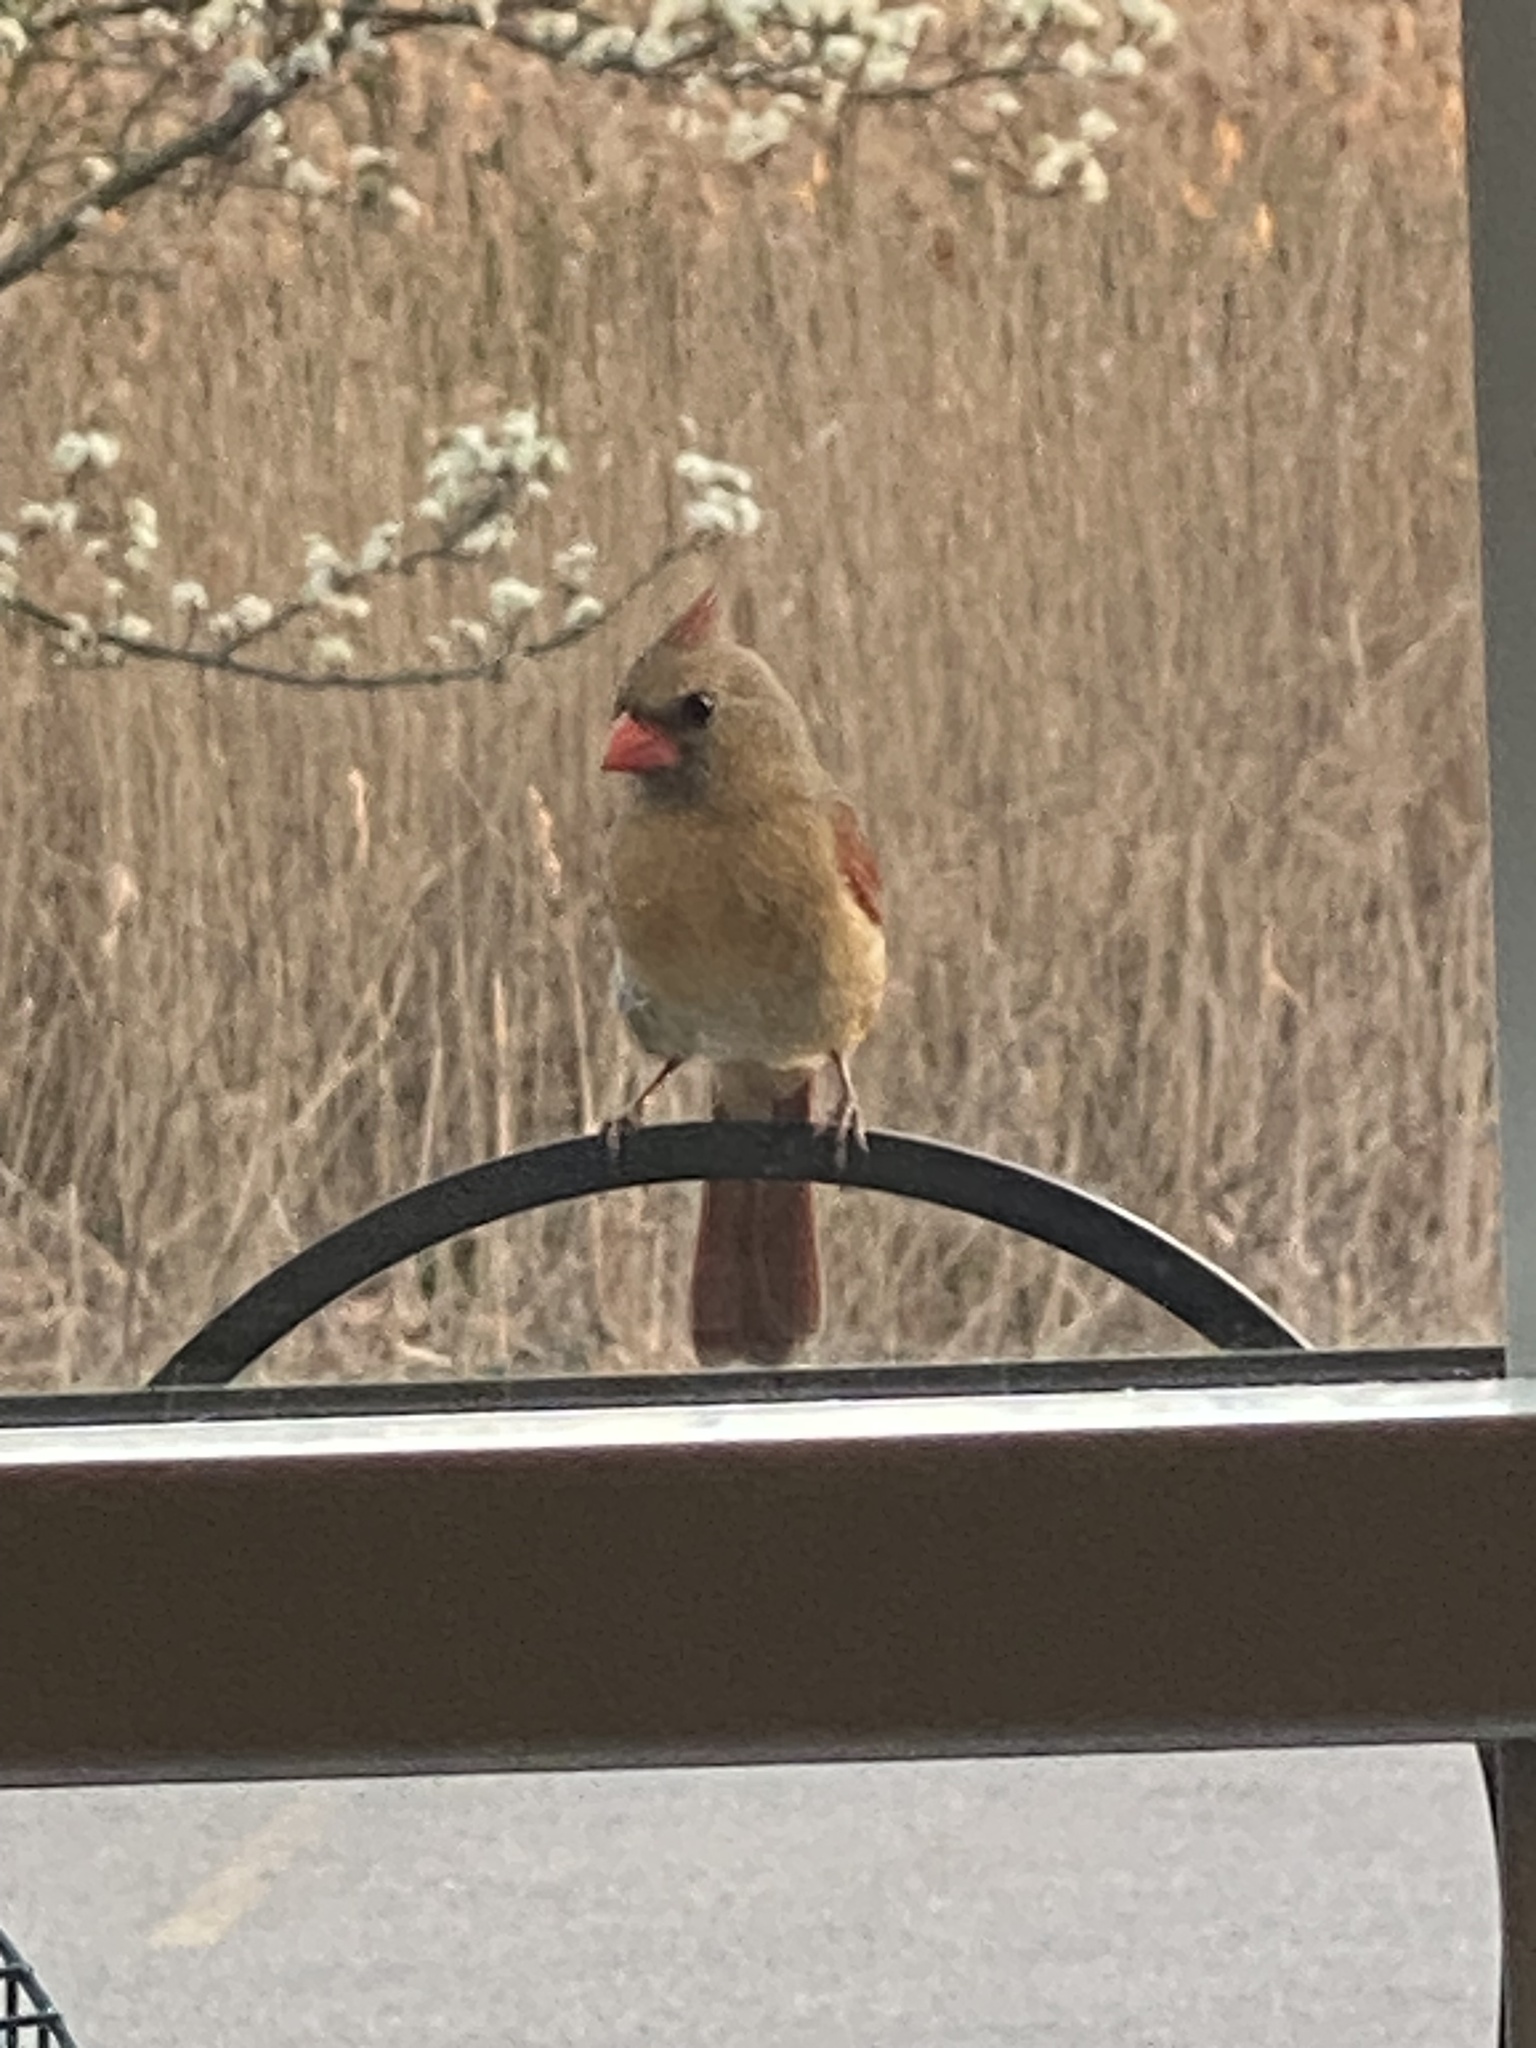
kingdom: Animalia
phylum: Chordata
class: Aves
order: Passeriformes
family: Cardinalidae
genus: Cardinalis
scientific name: Cardinalis cardinalis
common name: Northern cardinal
